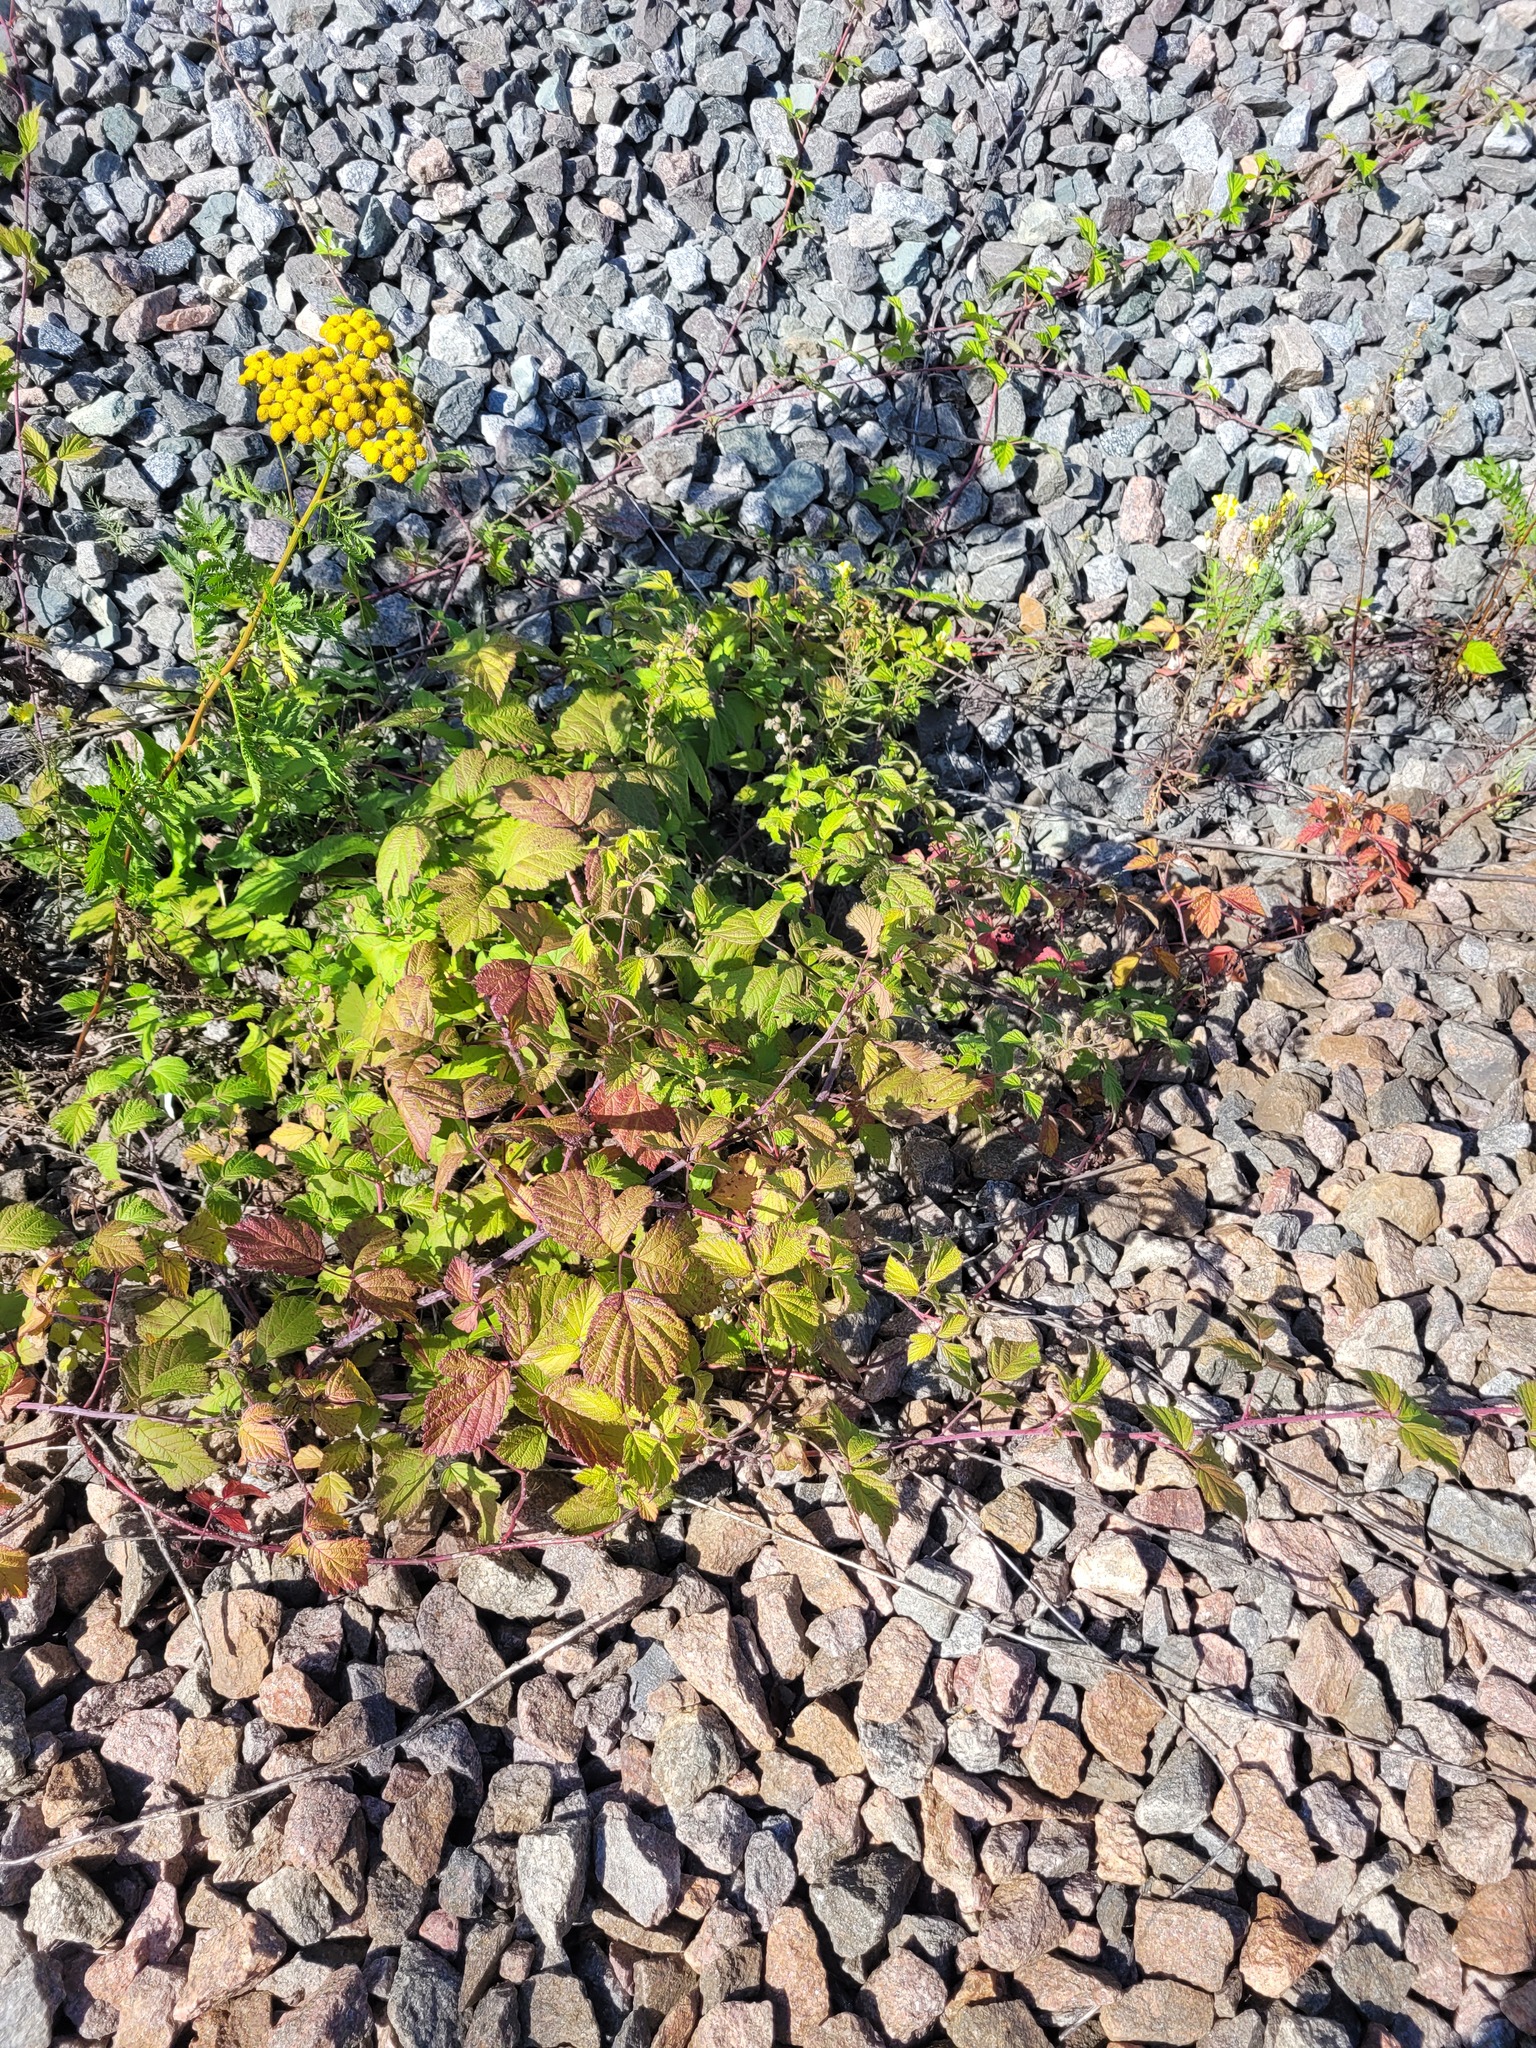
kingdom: Plantae
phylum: Tracheophyta
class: Magnoliopsida
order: Rosales
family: Rosaceae
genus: Rubus
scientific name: Rubus caesius
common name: Dewberry
